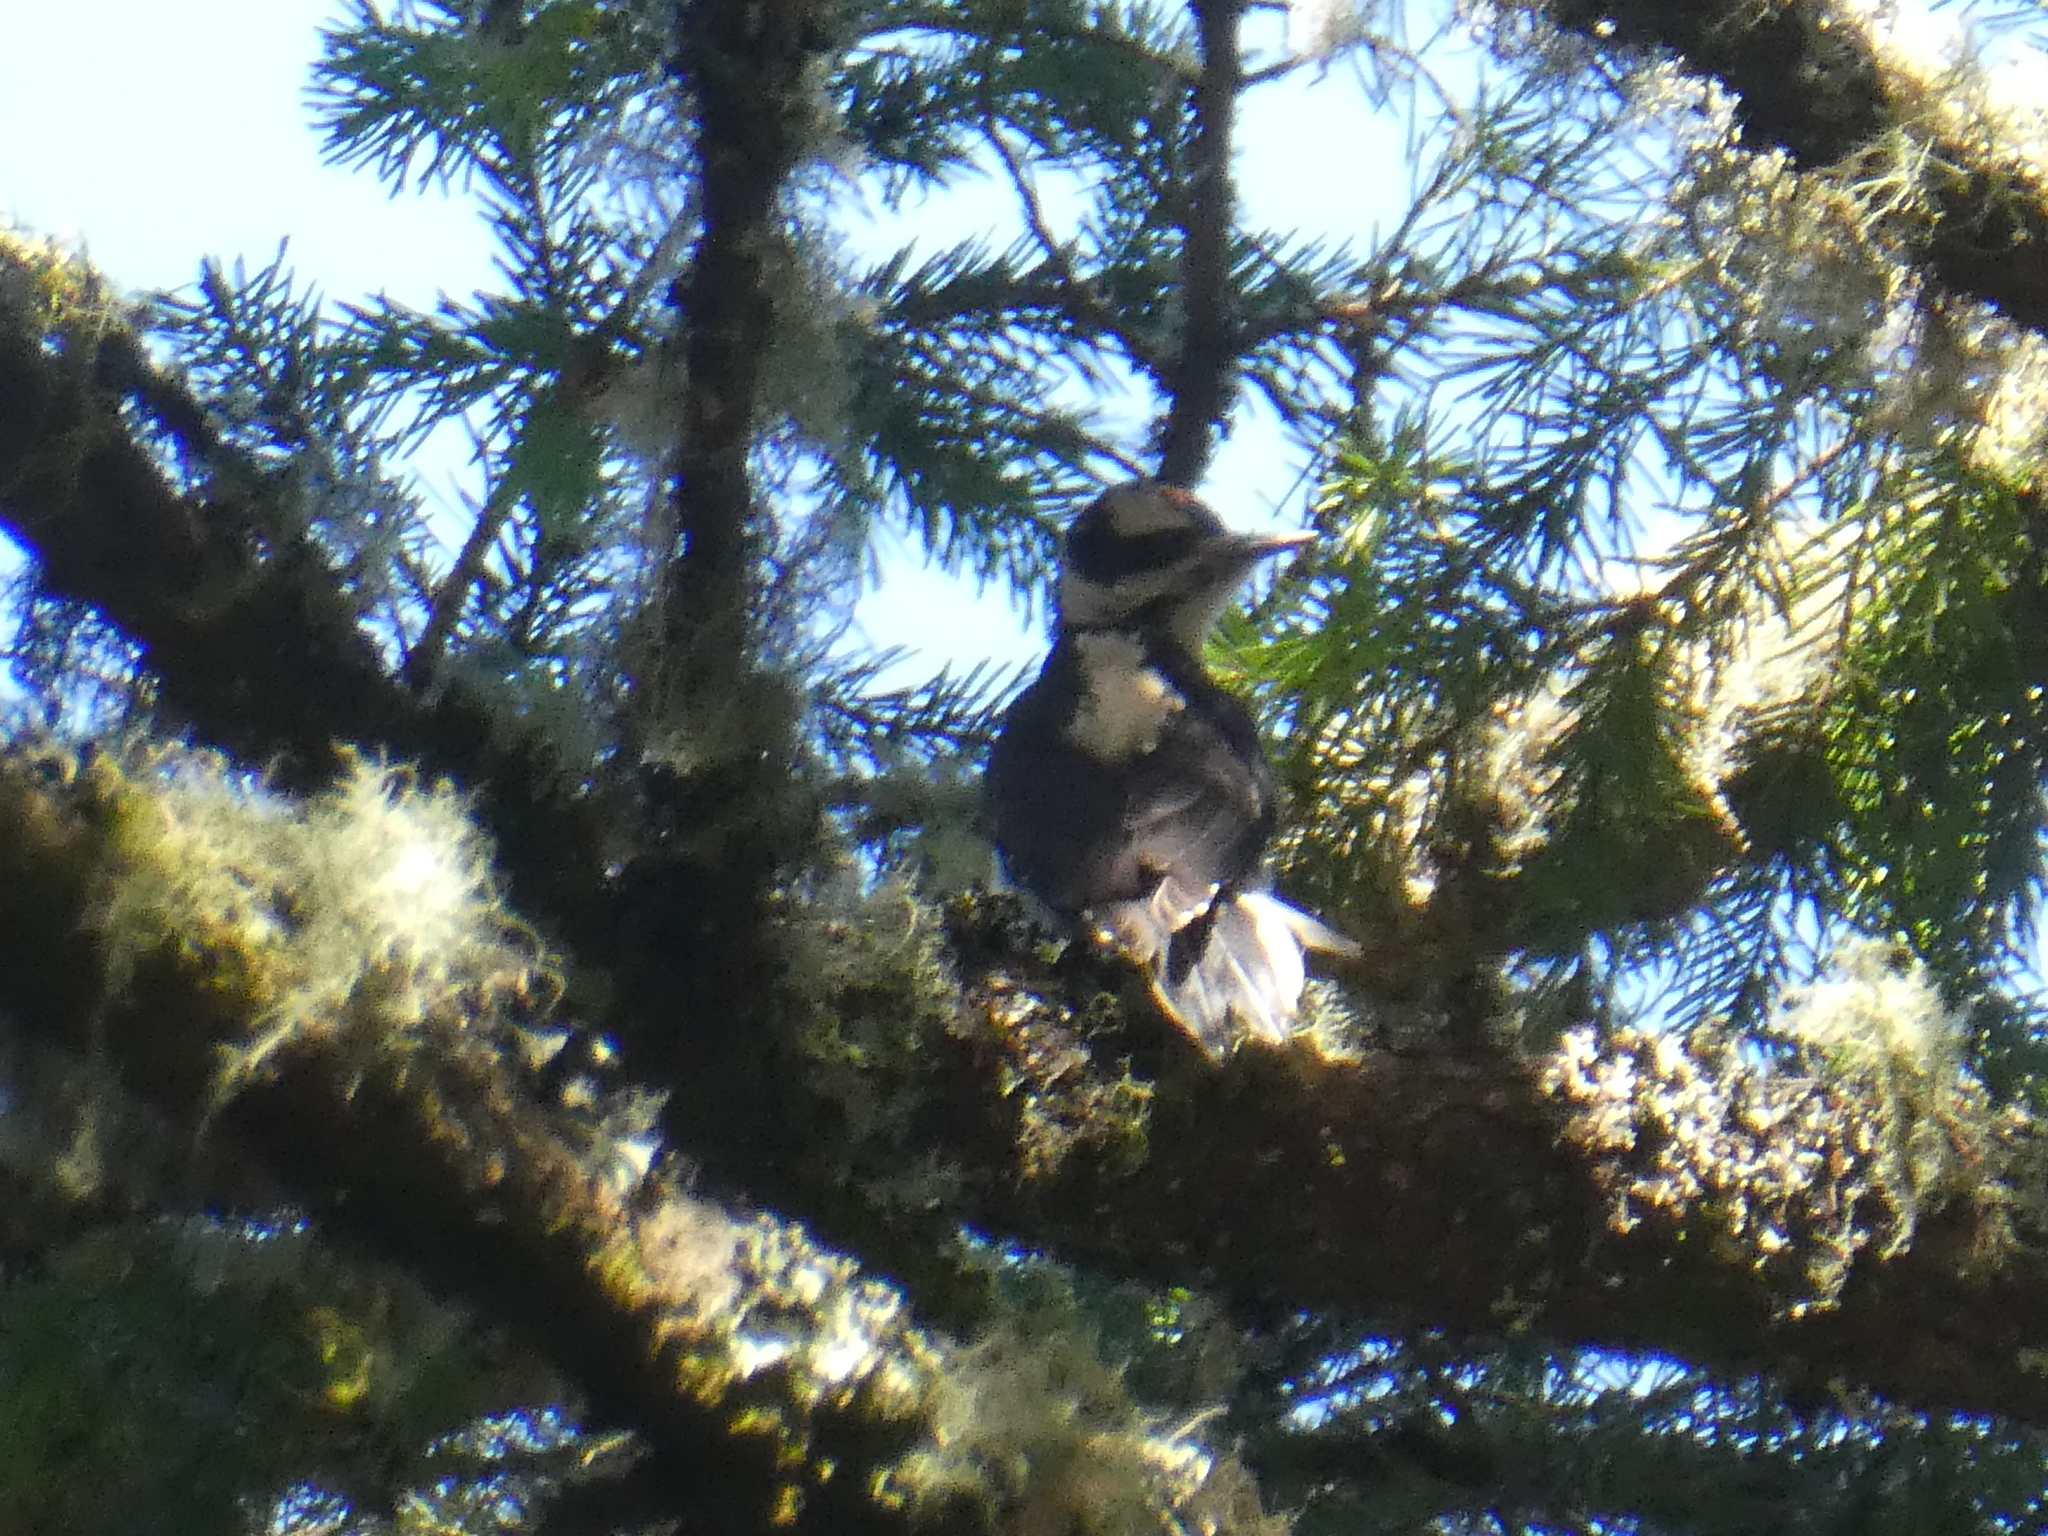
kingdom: Animalia
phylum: Chordata
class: Aves
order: Piciformes
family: Picidae
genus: Leuconotopicus
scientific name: Leuconotopicus villosus
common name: Hairy woodpecker
